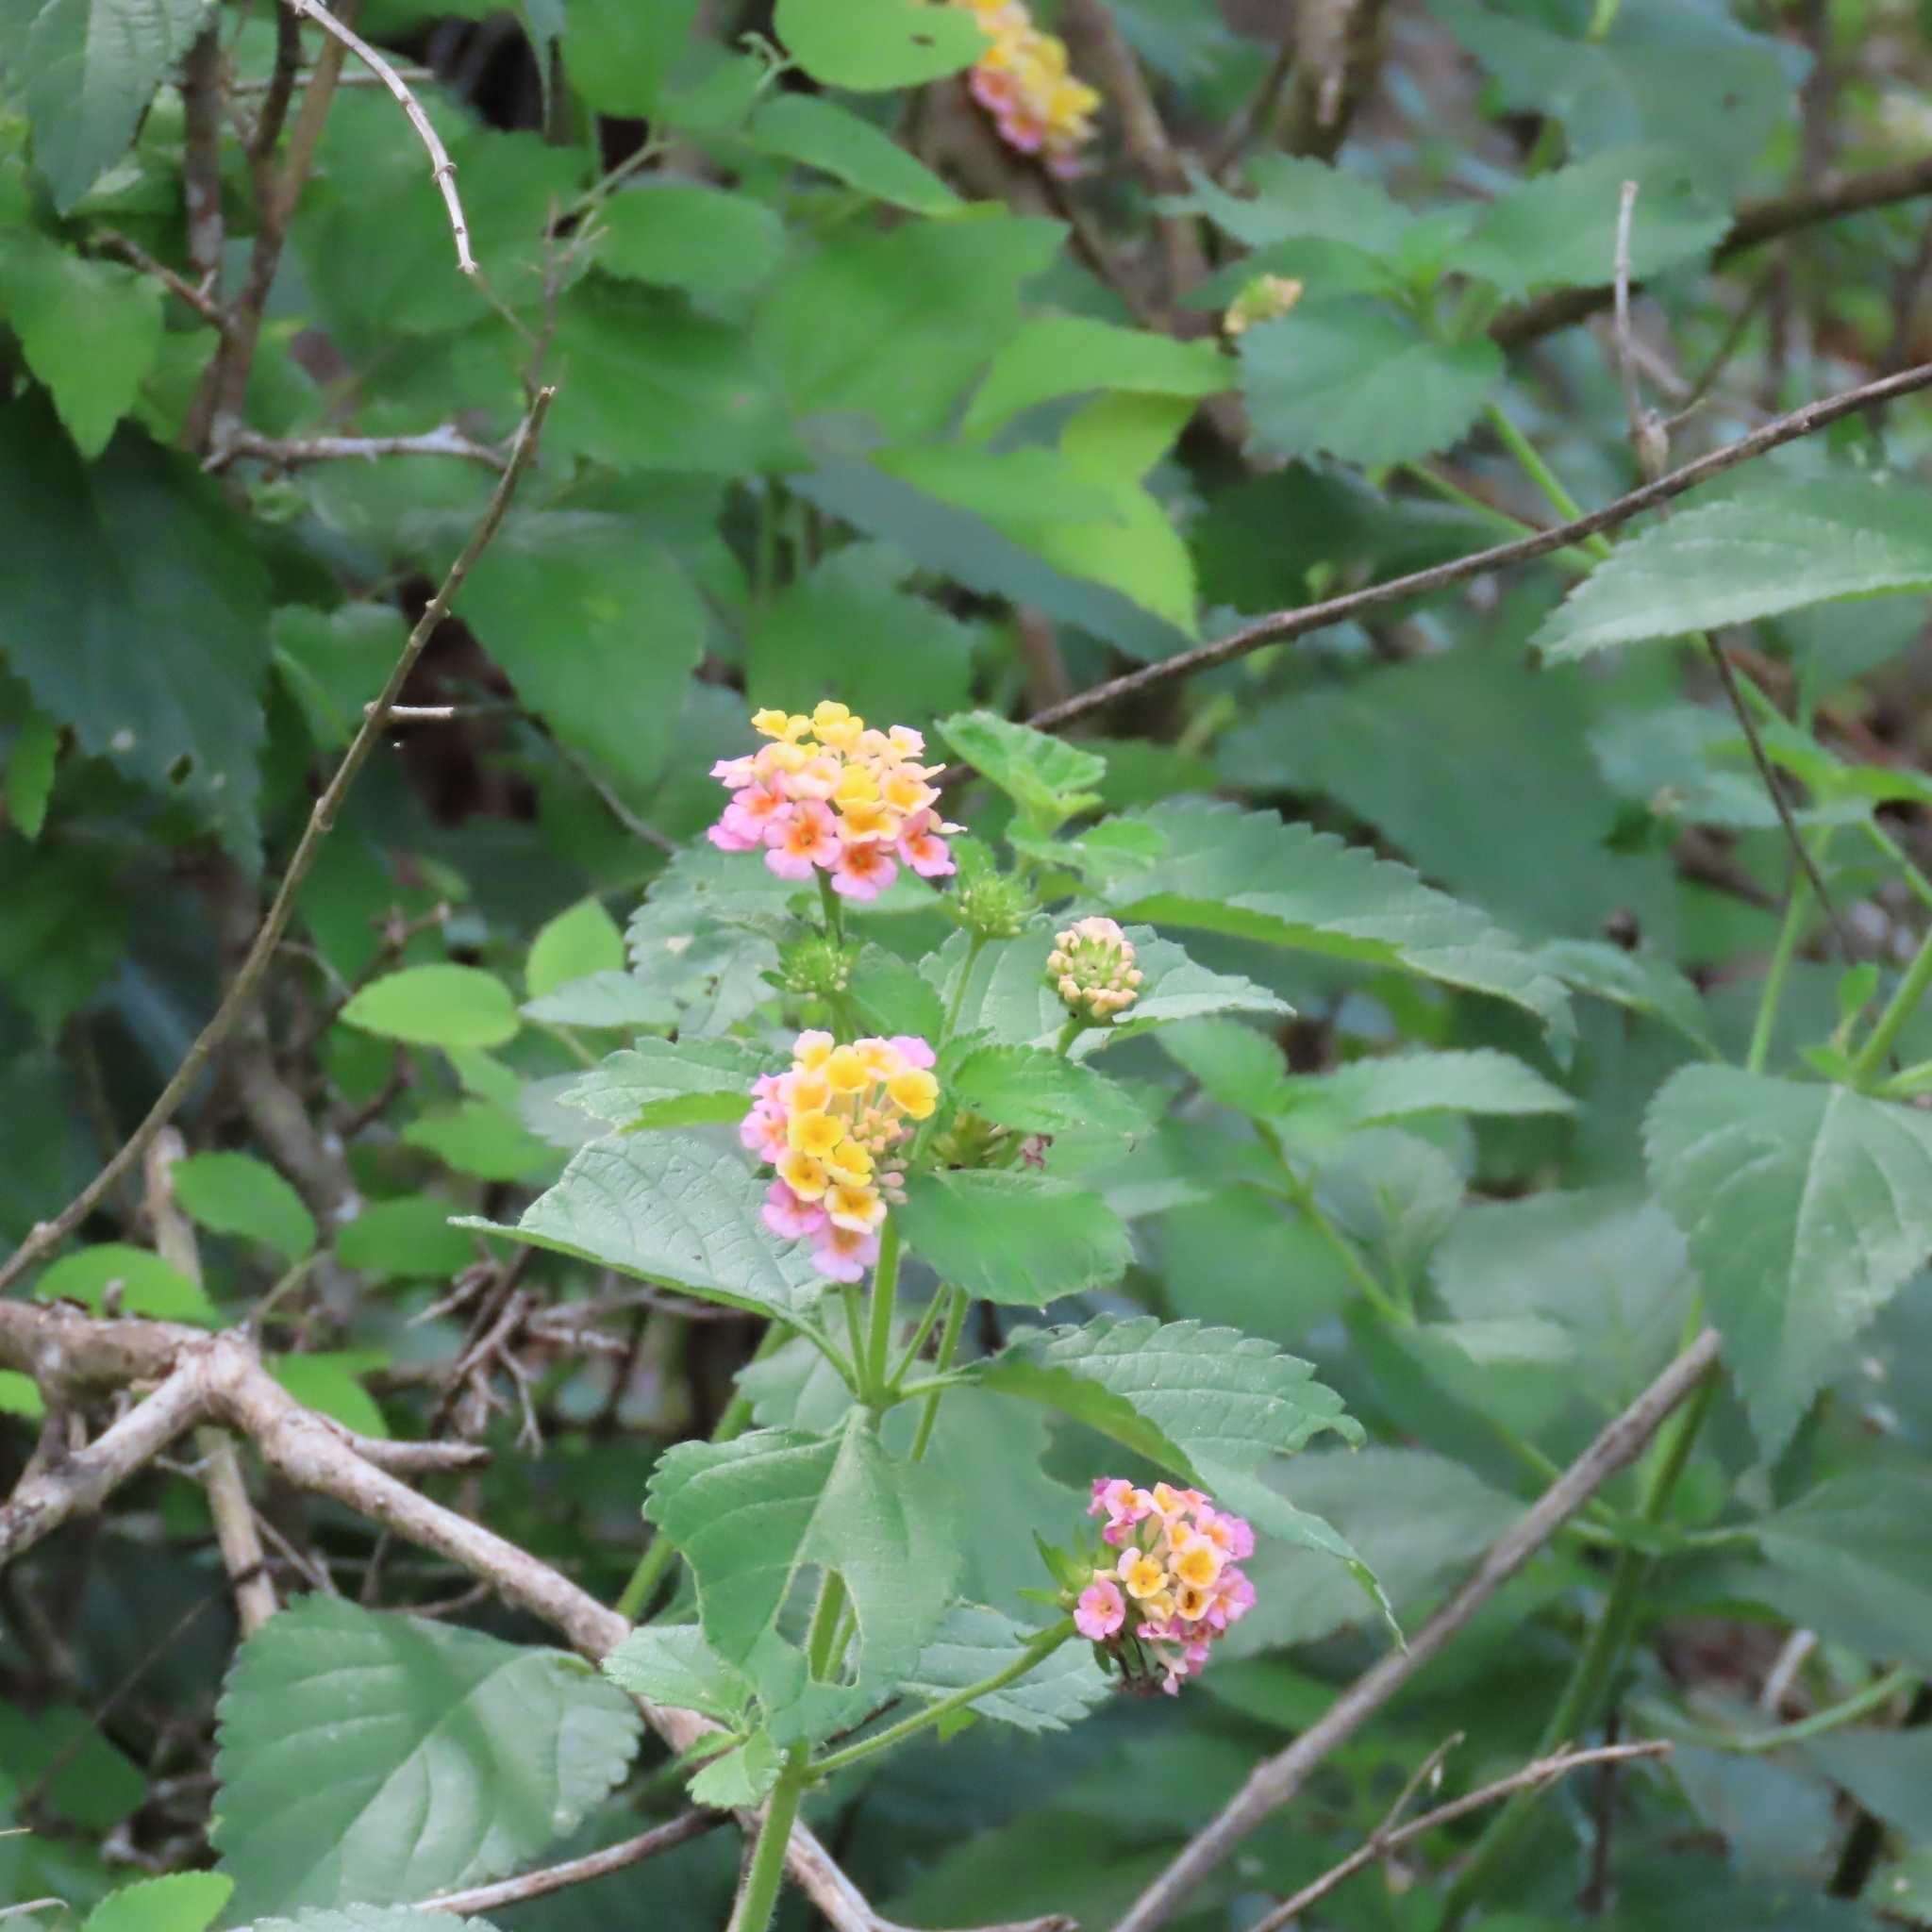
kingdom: Plantae
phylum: Tracheophyta
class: Magnoliopsida
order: Lamiales
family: Verbenaceae
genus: Lantana
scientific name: Lantana strigocamara
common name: Lantana
